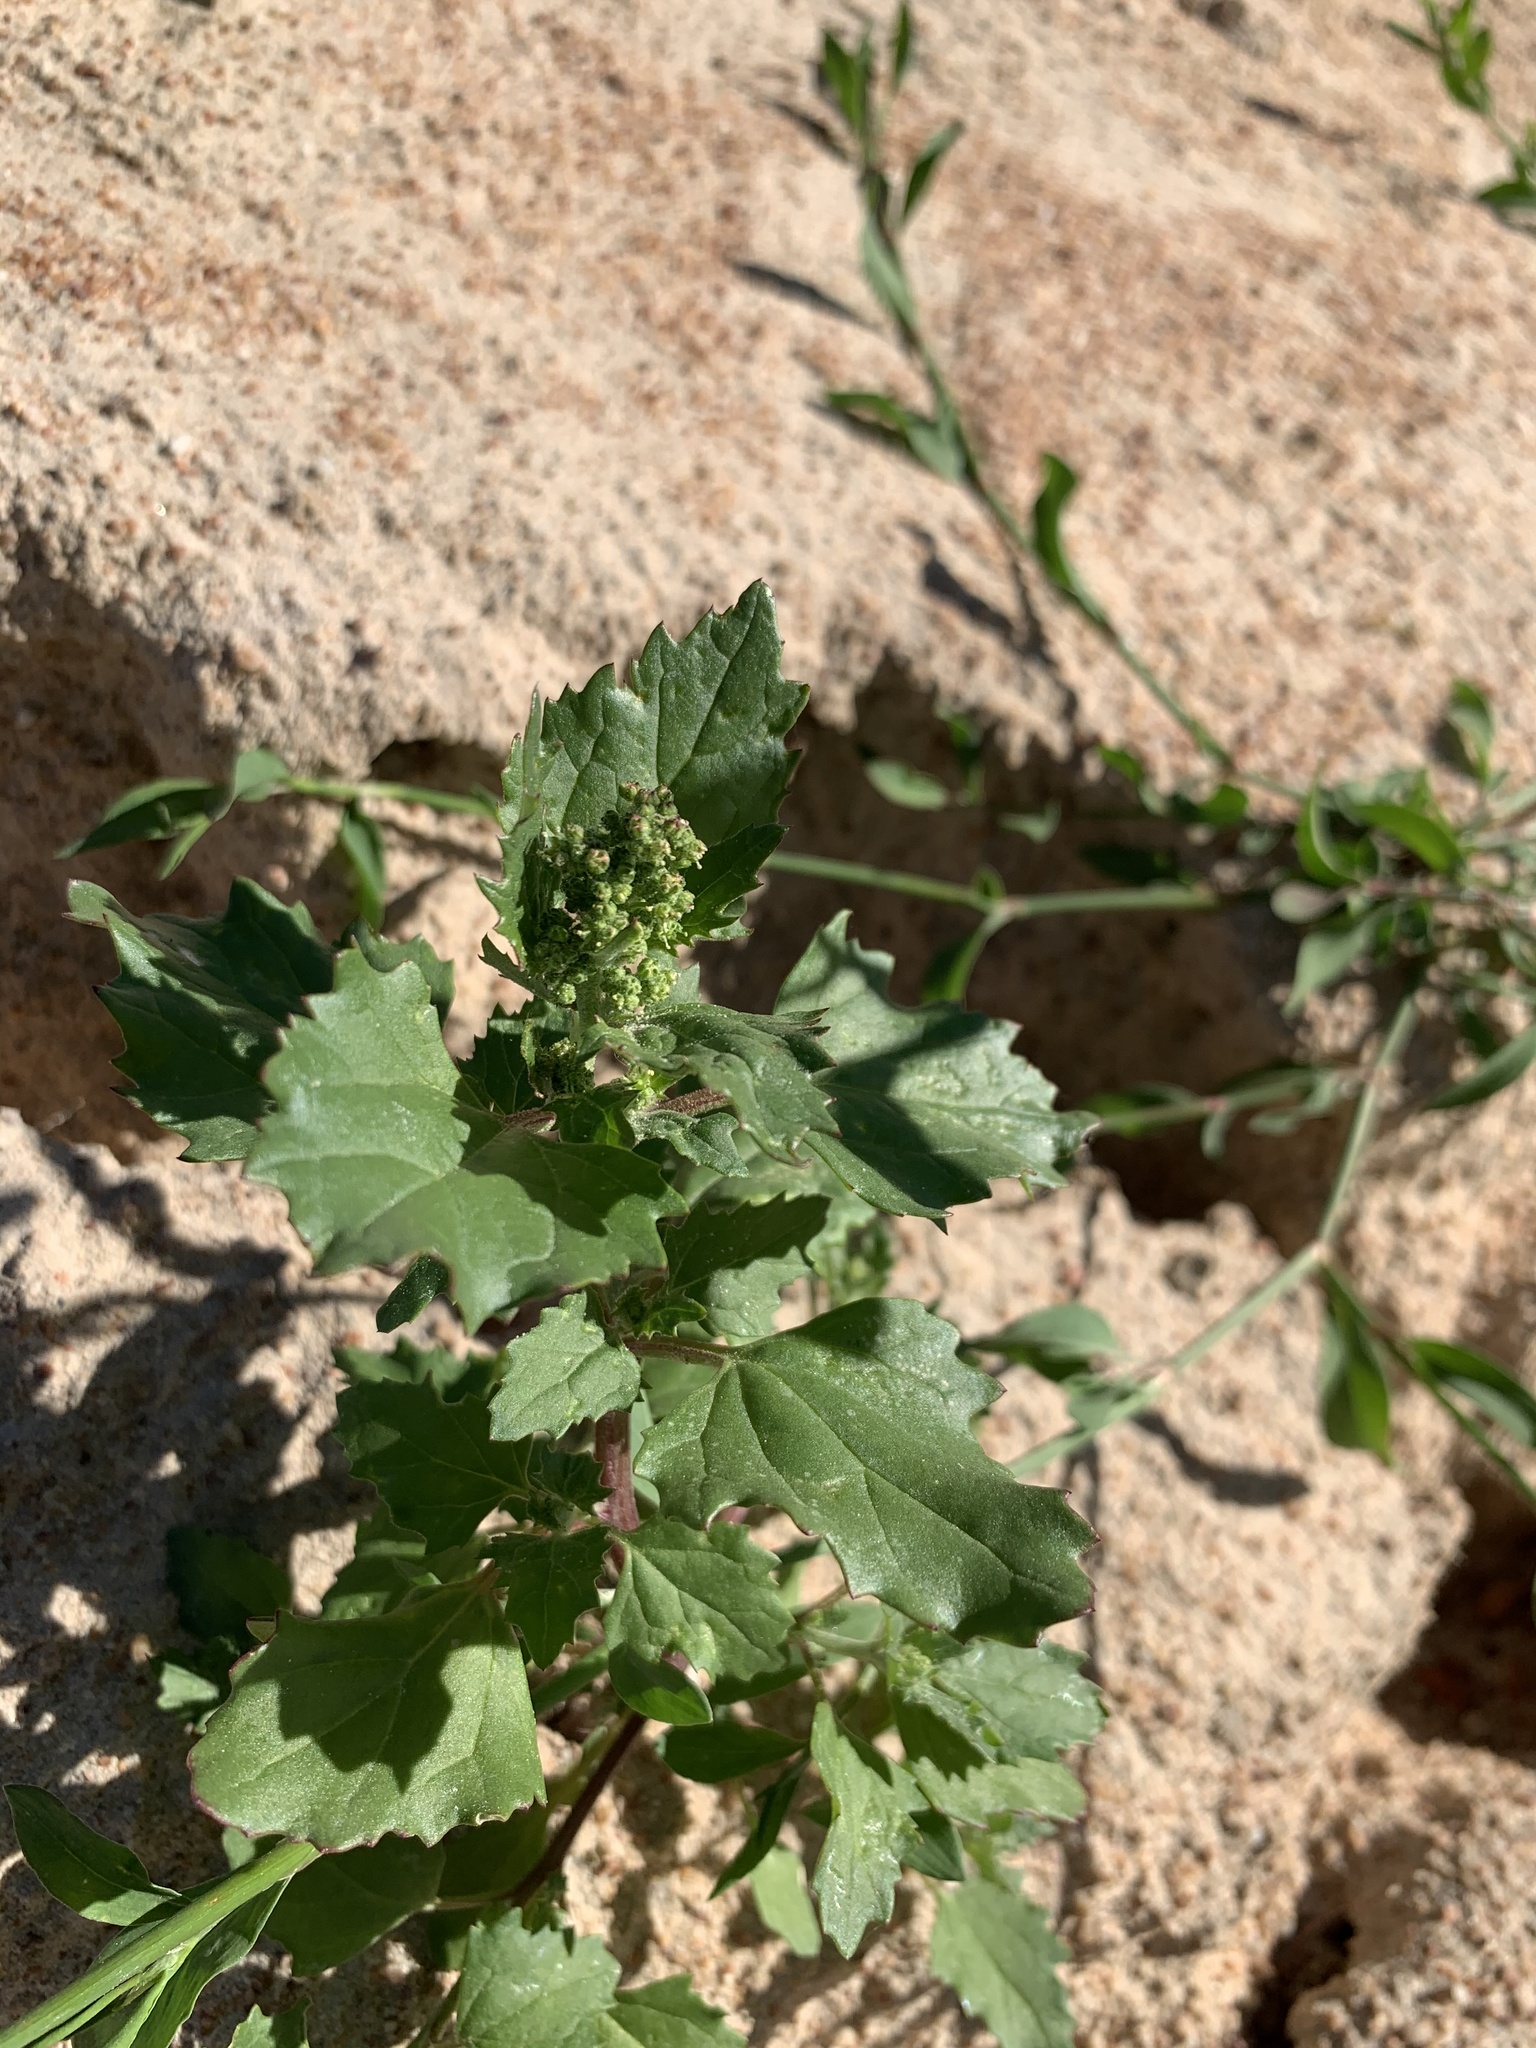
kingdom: Plantae
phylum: Tracheophyta
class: Magnoliopsida
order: Caryophyllales
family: Amaranthaceae
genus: Chenopodiastrum
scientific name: Chenopodiastrum murale
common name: Sowbane
